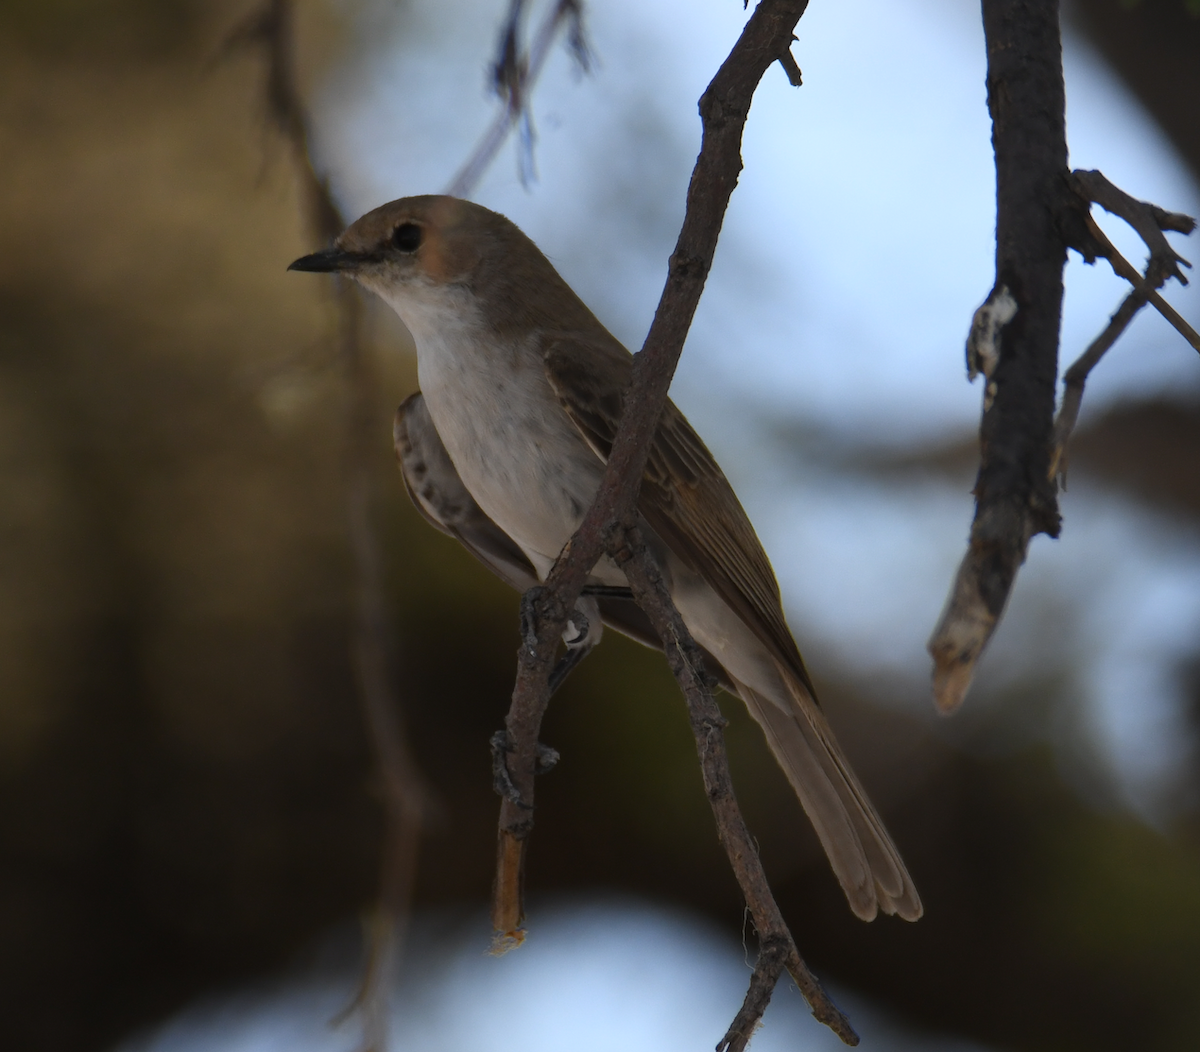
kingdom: Animalia
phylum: Chordata
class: Aves
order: Passeriformes
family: Muscicapidae
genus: Bradornis
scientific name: Bradornis mariquensis
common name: Marico flycatcher
